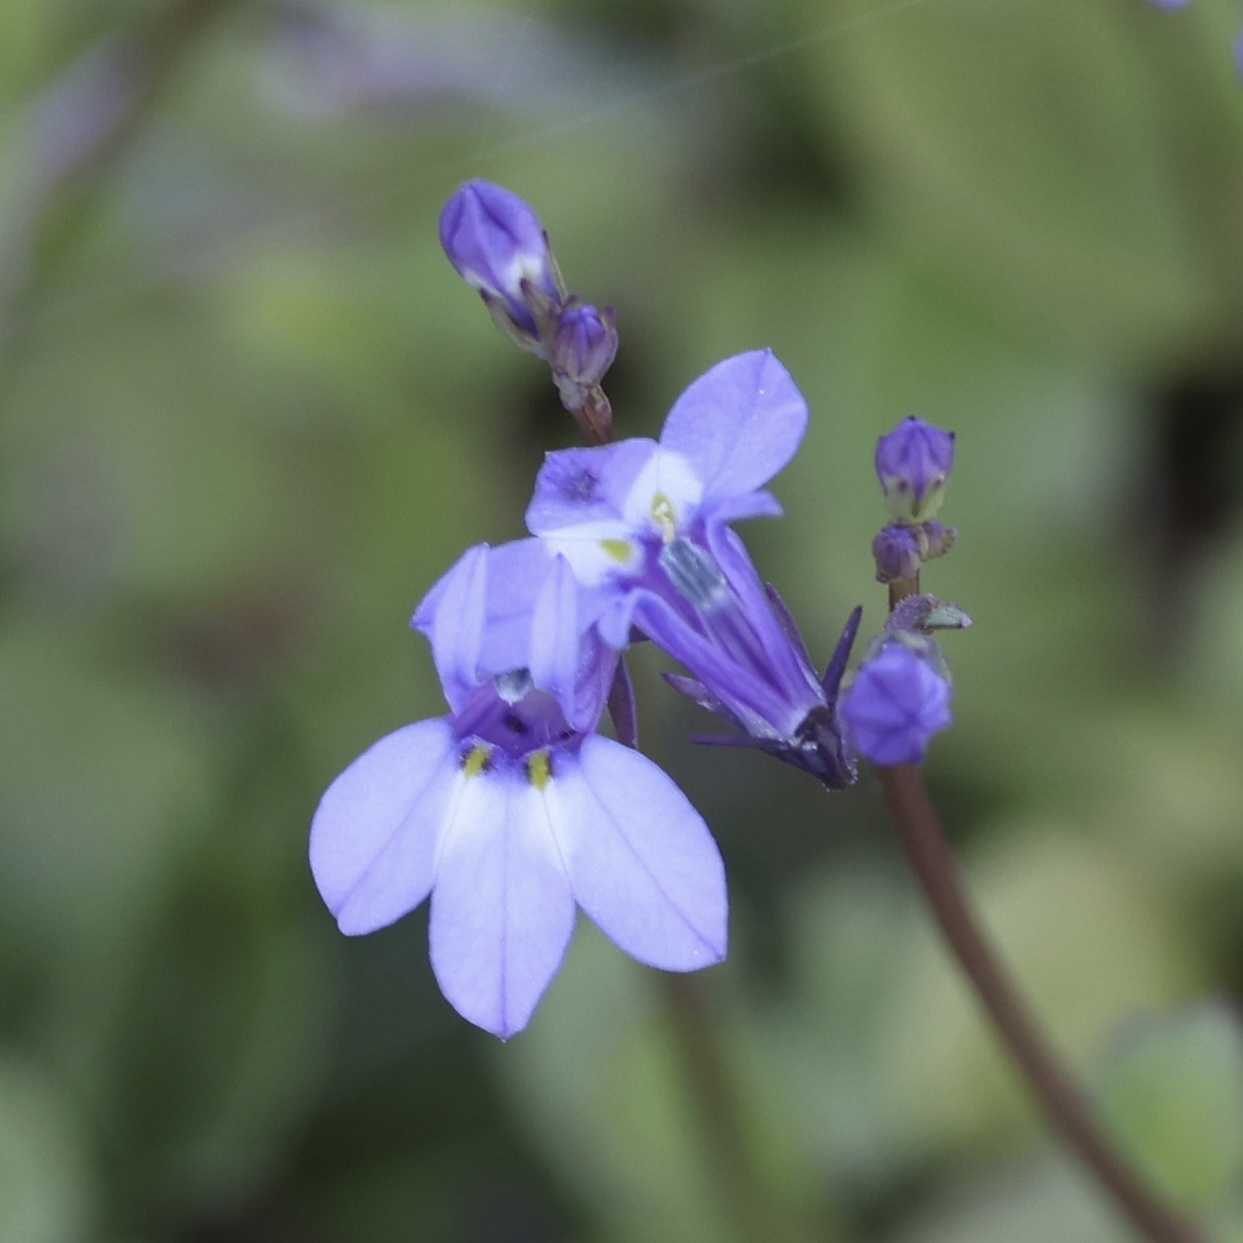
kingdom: Plantae
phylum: Tracheophyta
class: Magnoliopsida
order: Asterales
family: Campanulaceae
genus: Lobelia
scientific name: Lobelia feayana
